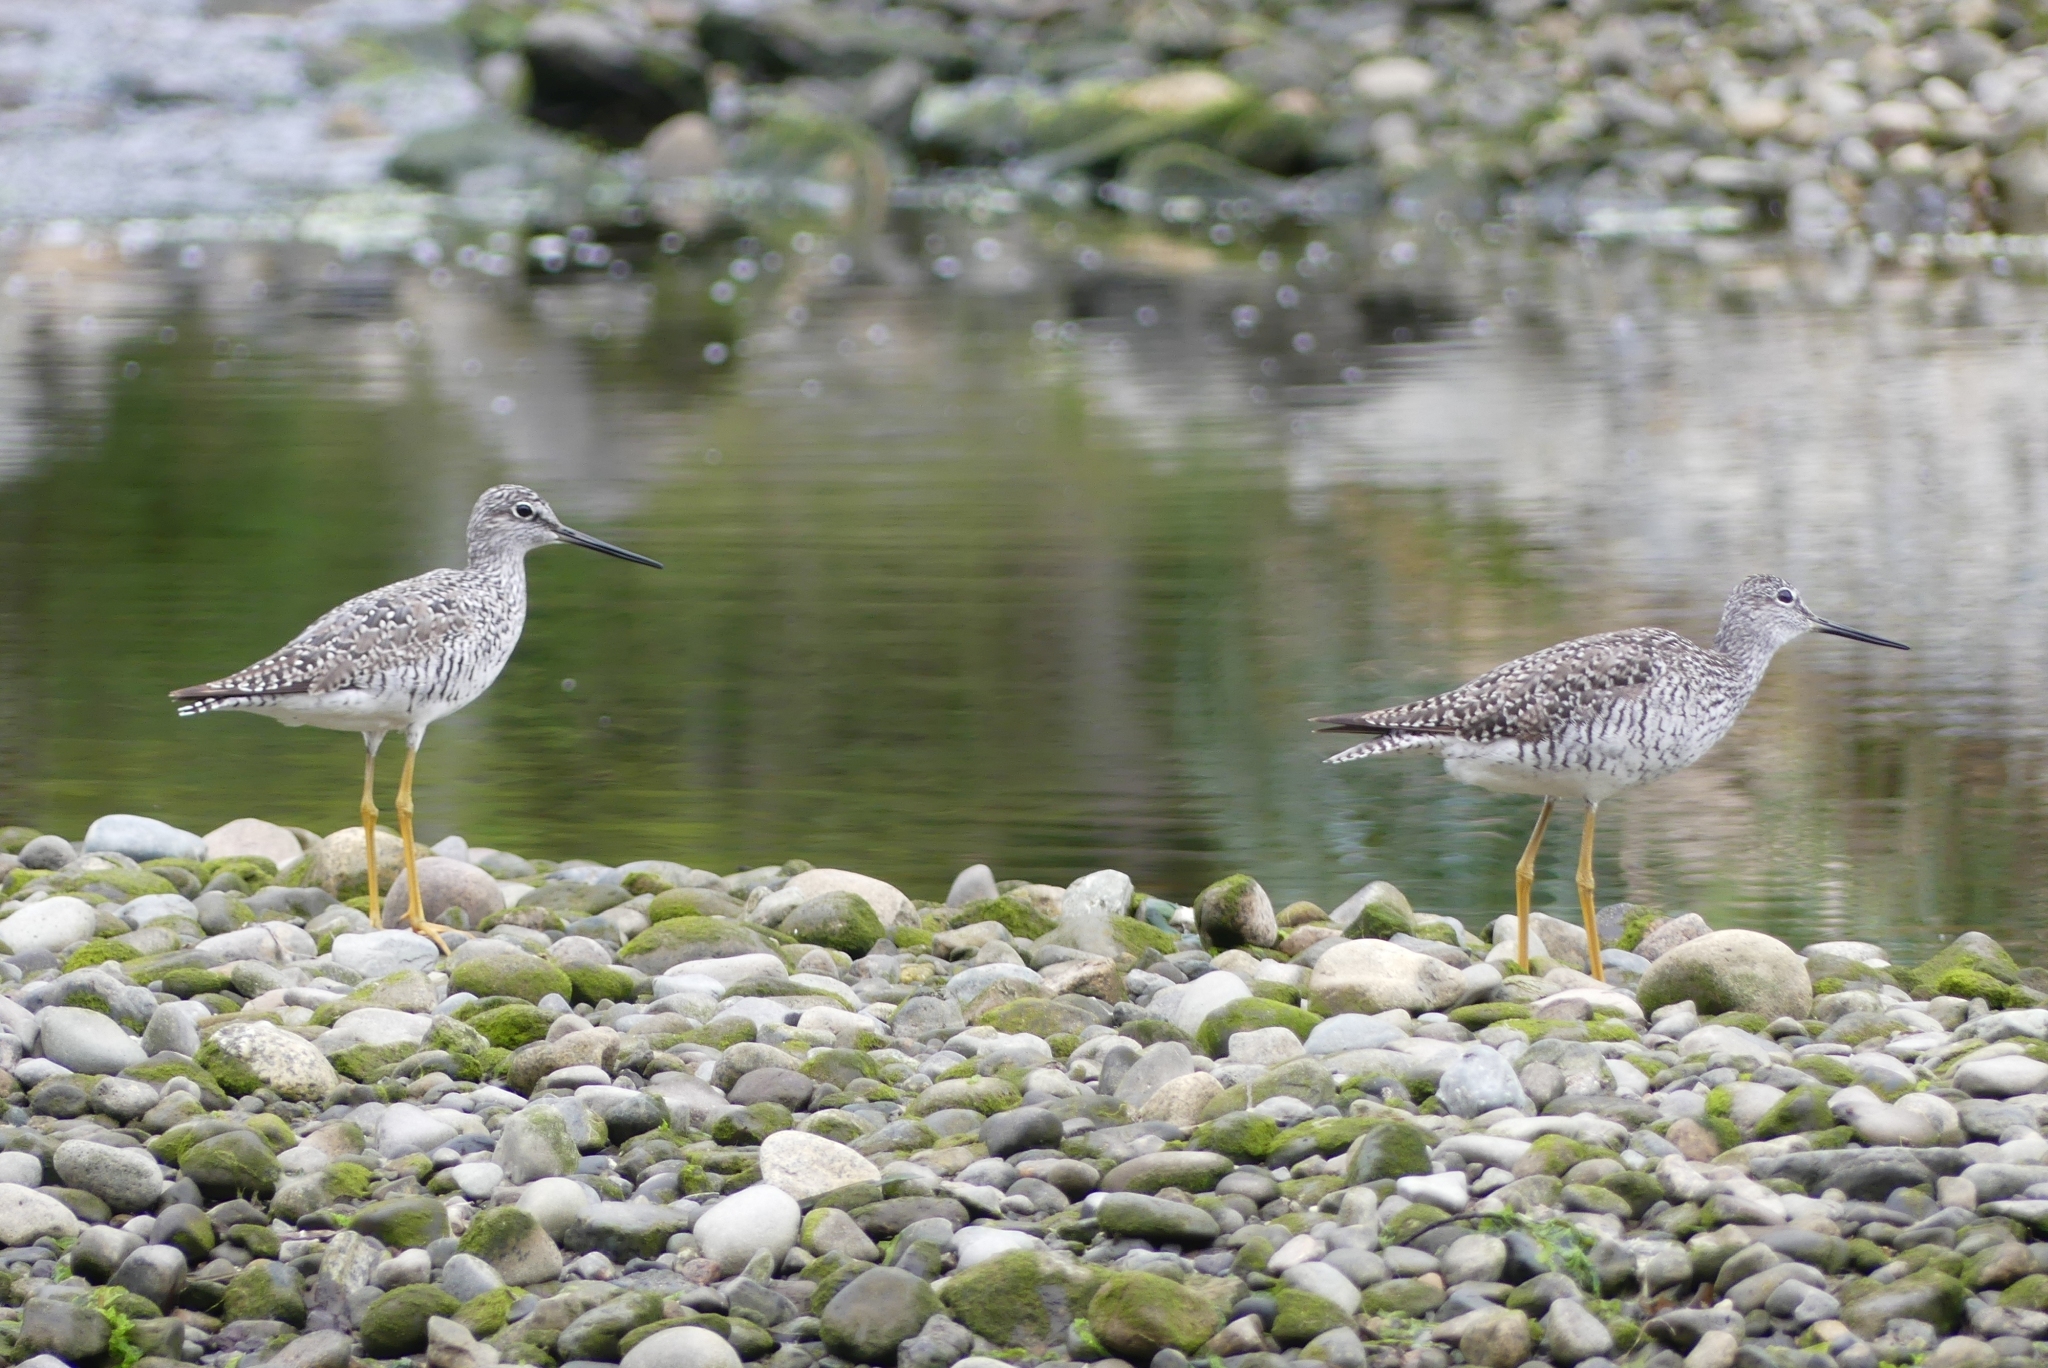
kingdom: Animalia
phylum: Chordata
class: Aves
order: Charadriiformes
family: Scolopacidae
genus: Tringa
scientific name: Tringa melanoleuca
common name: Greater yellowlegs
